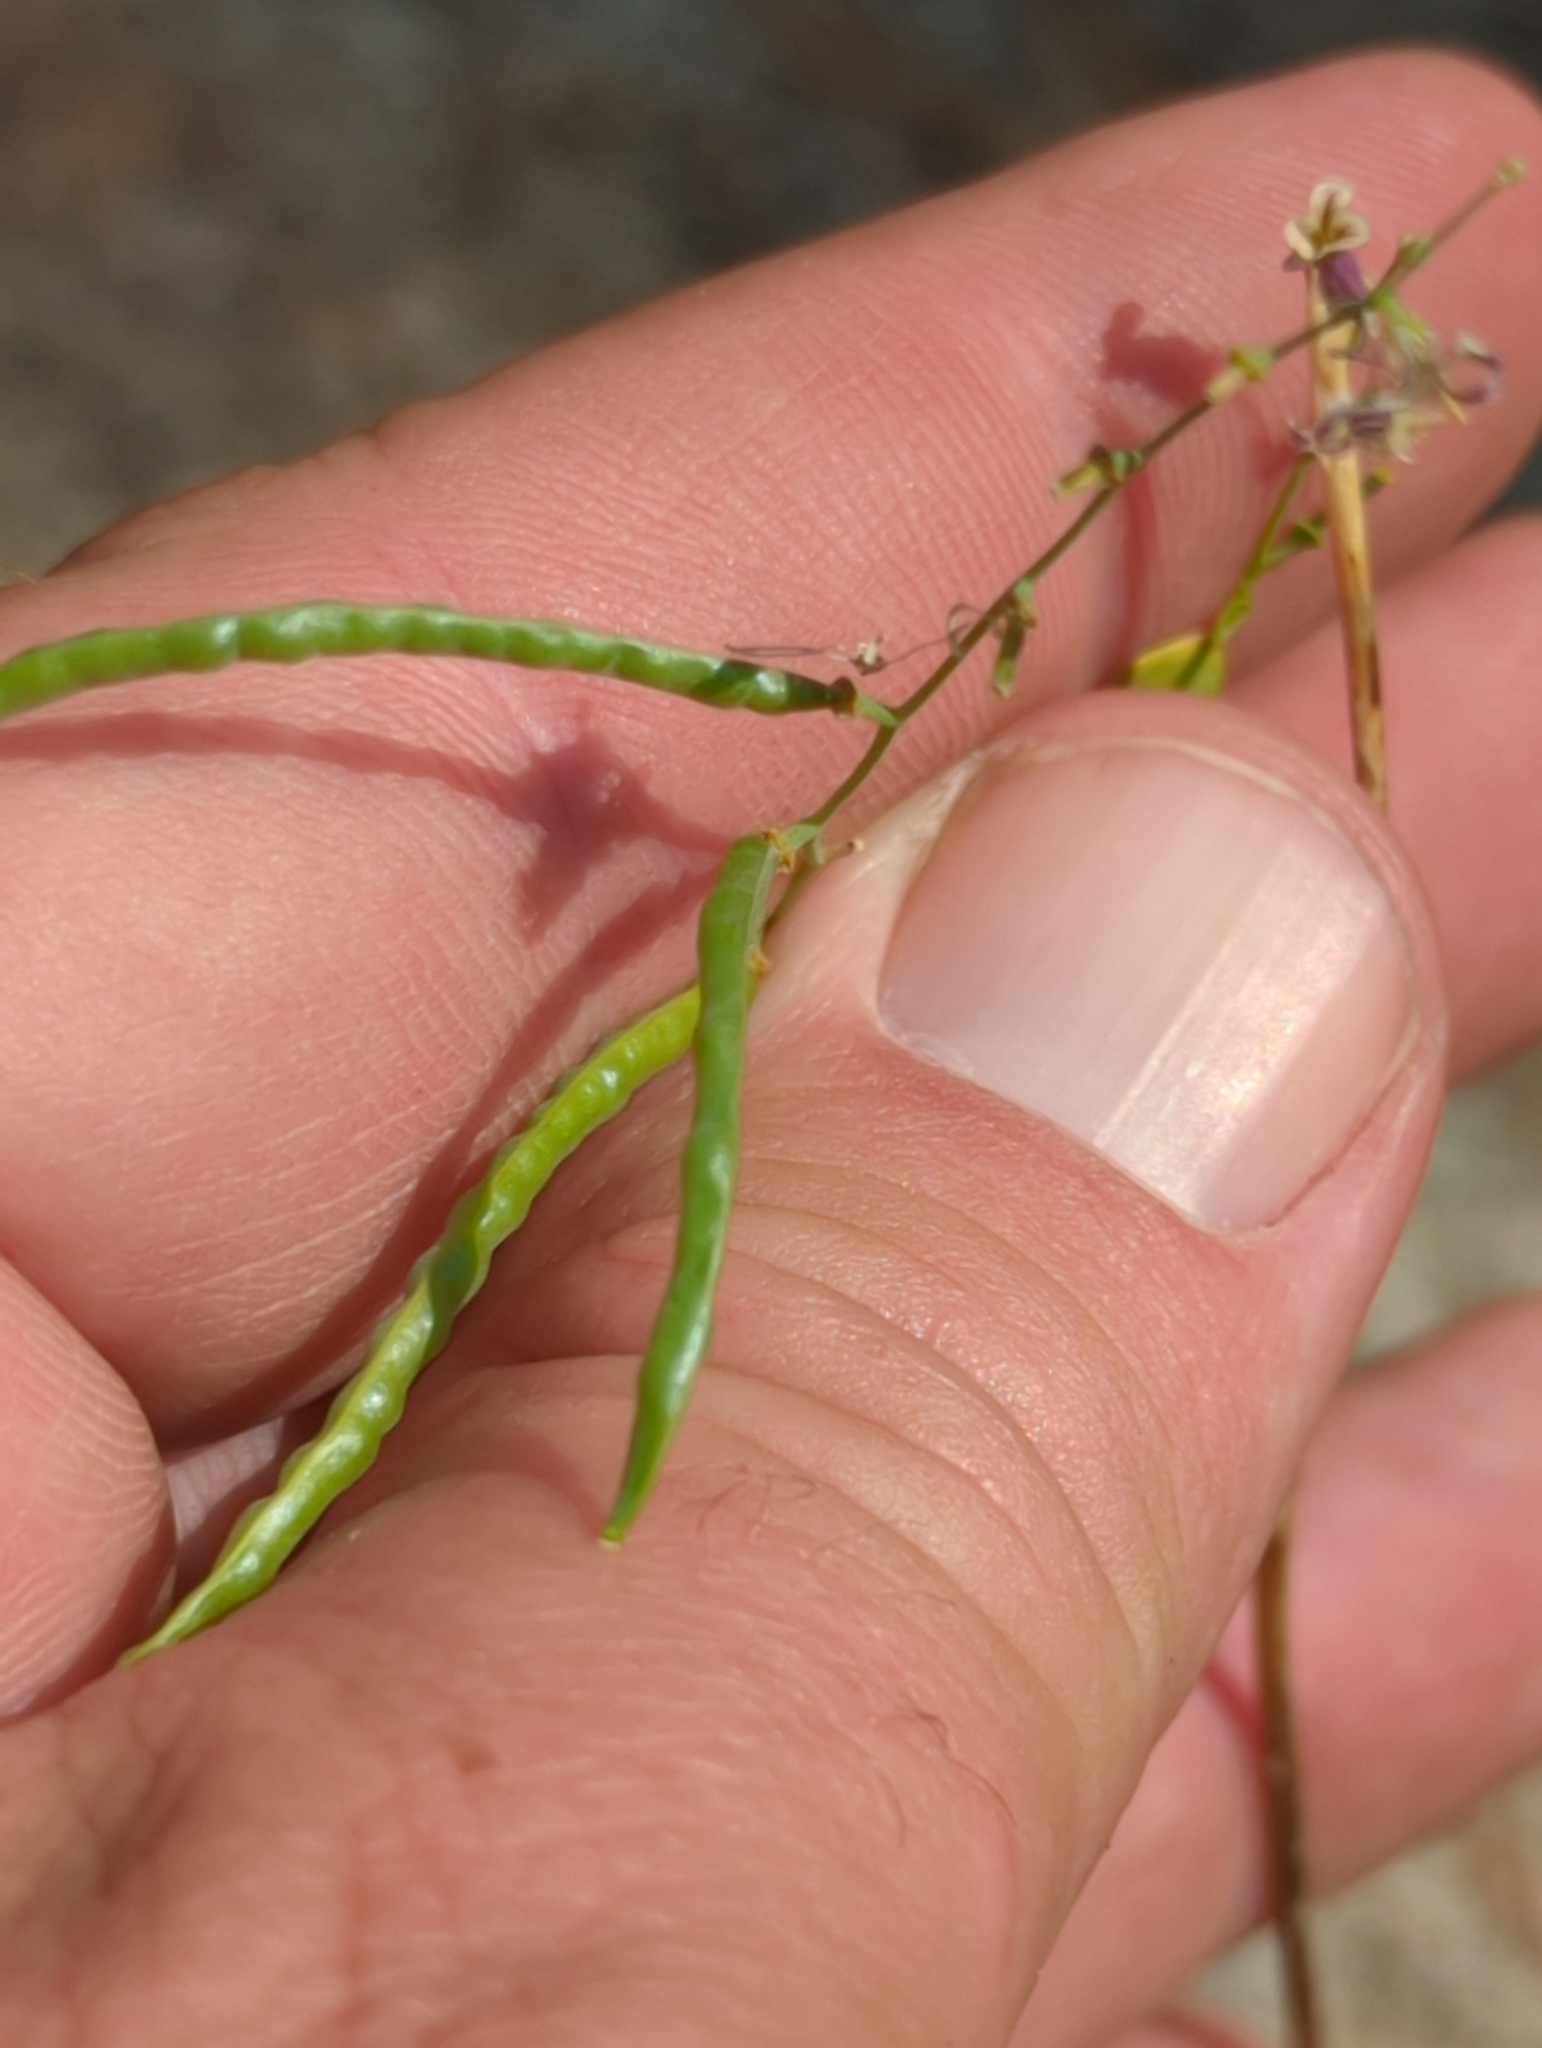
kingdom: Plantae
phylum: Tracheophyta
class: Magnoliopsida
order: Brassicales
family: Brassicaceae
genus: Streptanthus
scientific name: Streptanthus tortuosus
